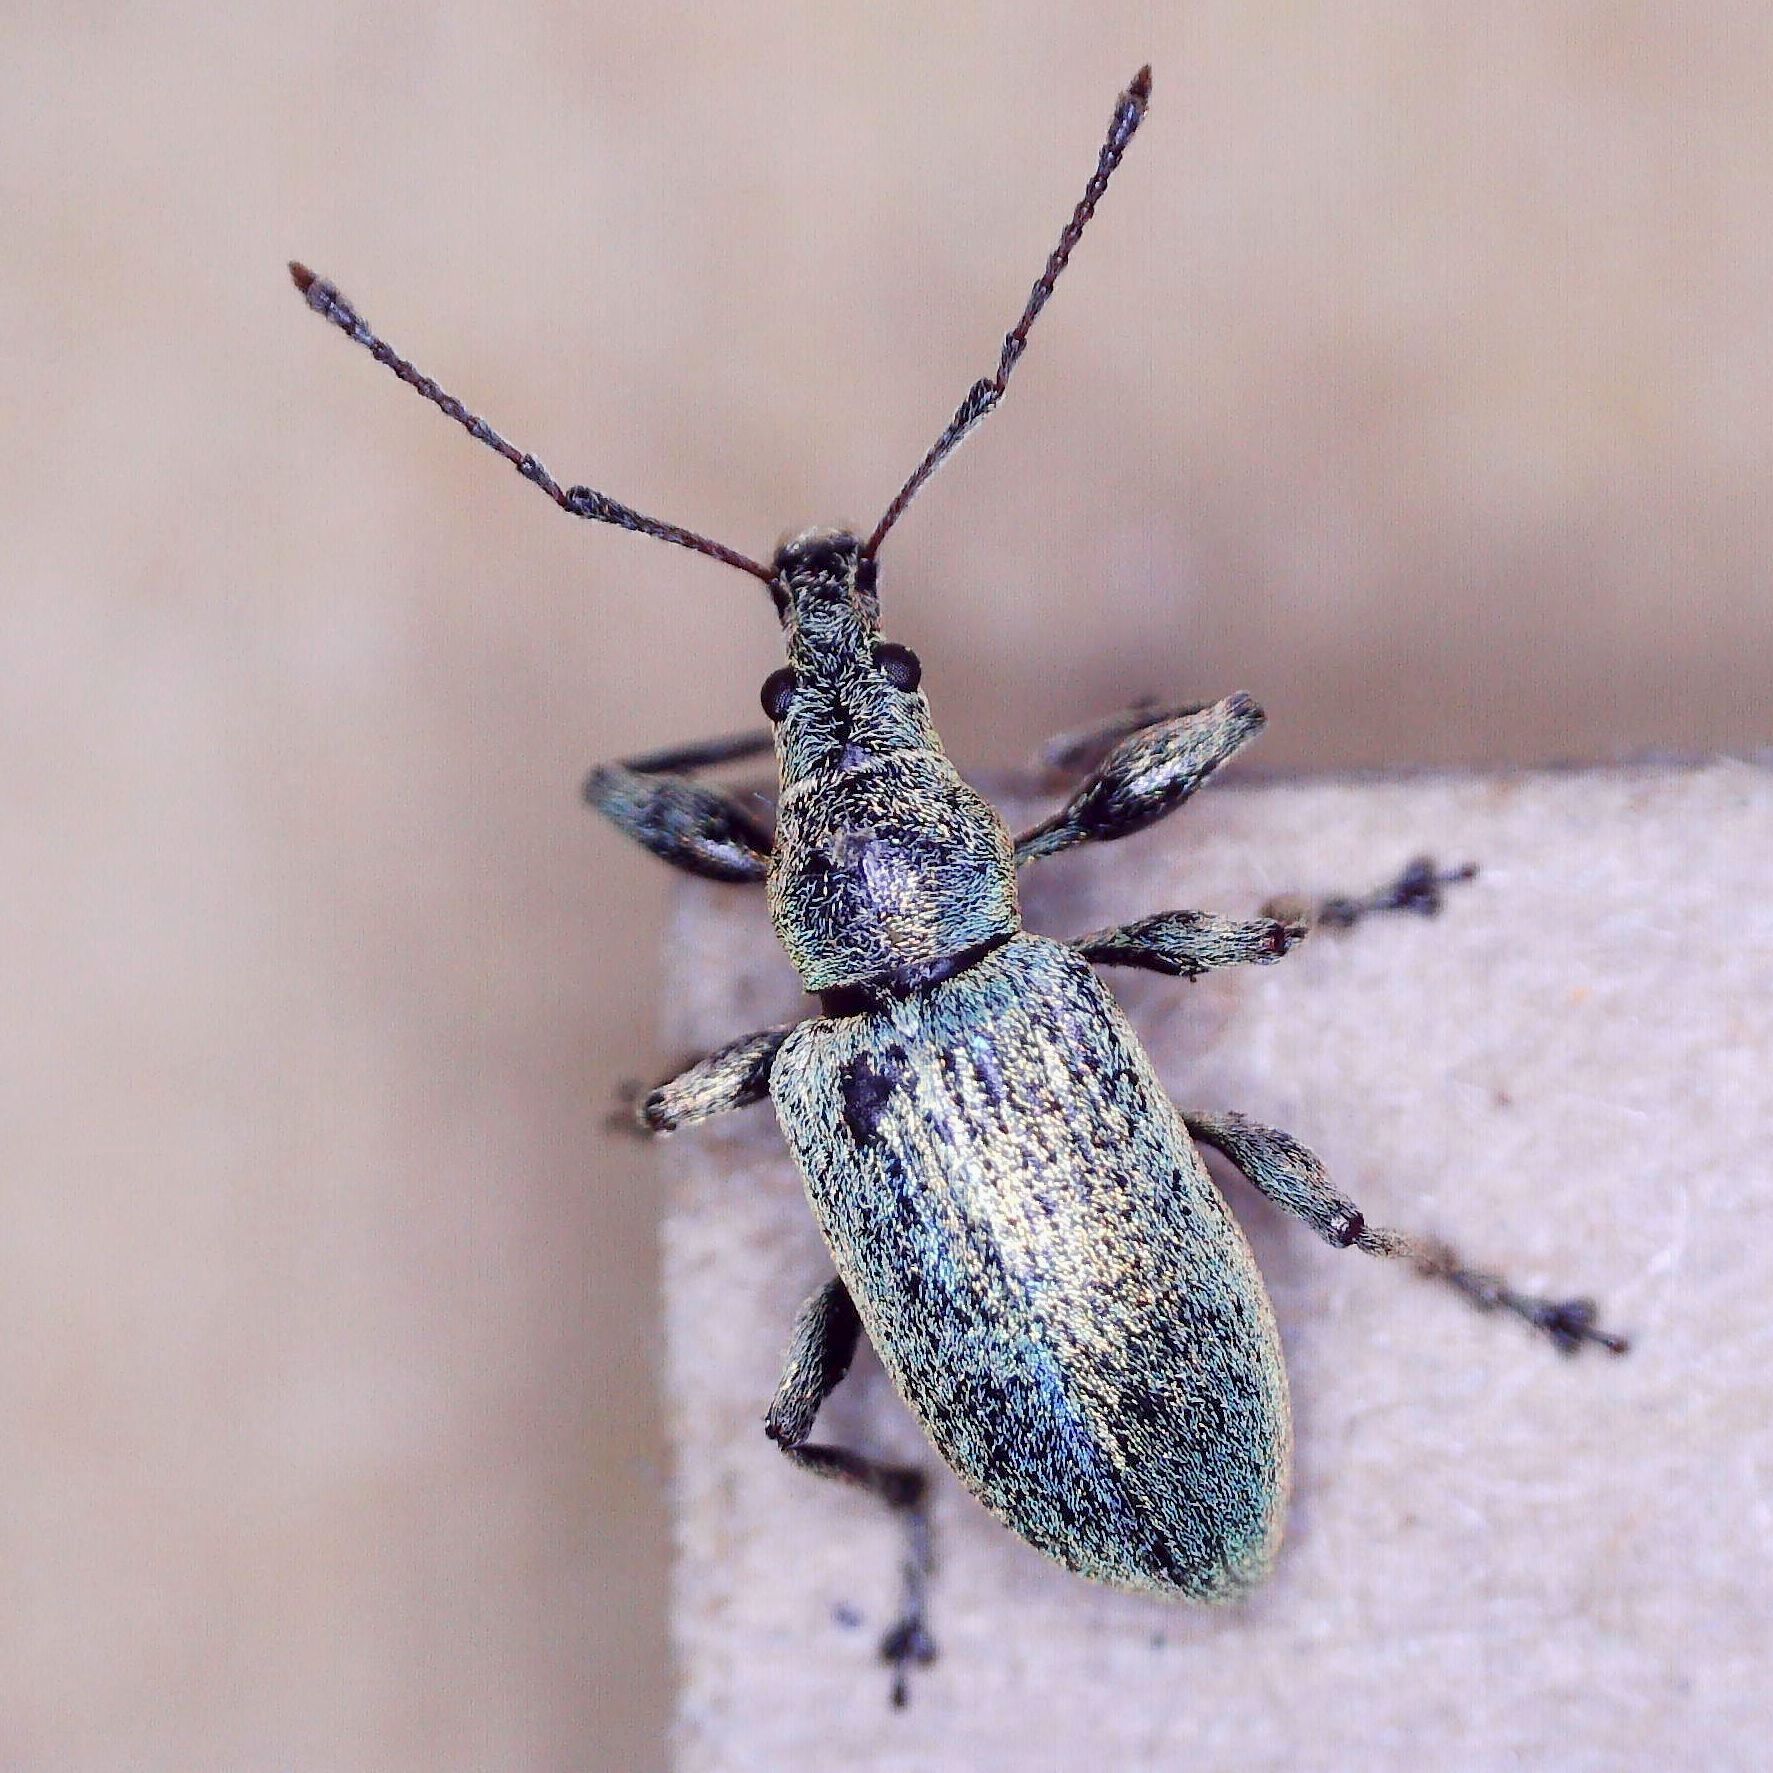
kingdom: Animalia
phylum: Arthropoda
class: Insecta
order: Coleoptera
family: Curculionidae
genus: Phyllobius
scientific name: Phyllobius pomaceus
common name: Green nettle weevil
